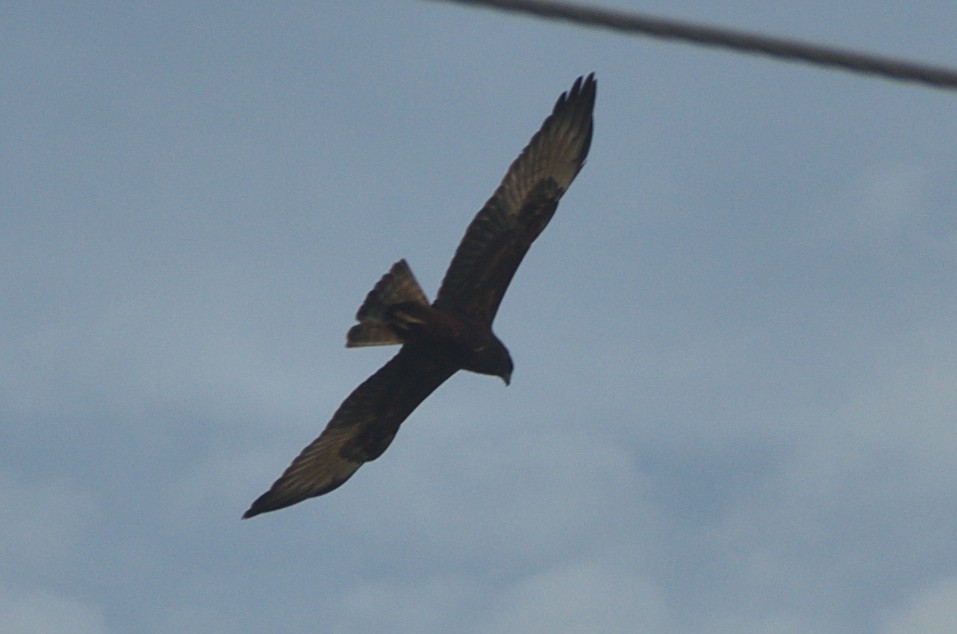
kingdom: Animalia
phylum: Chordata
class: Aves
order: Accipitriformes
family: Accipitridae
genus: Circus
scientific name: Circus approximans
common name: Swamp harrier
